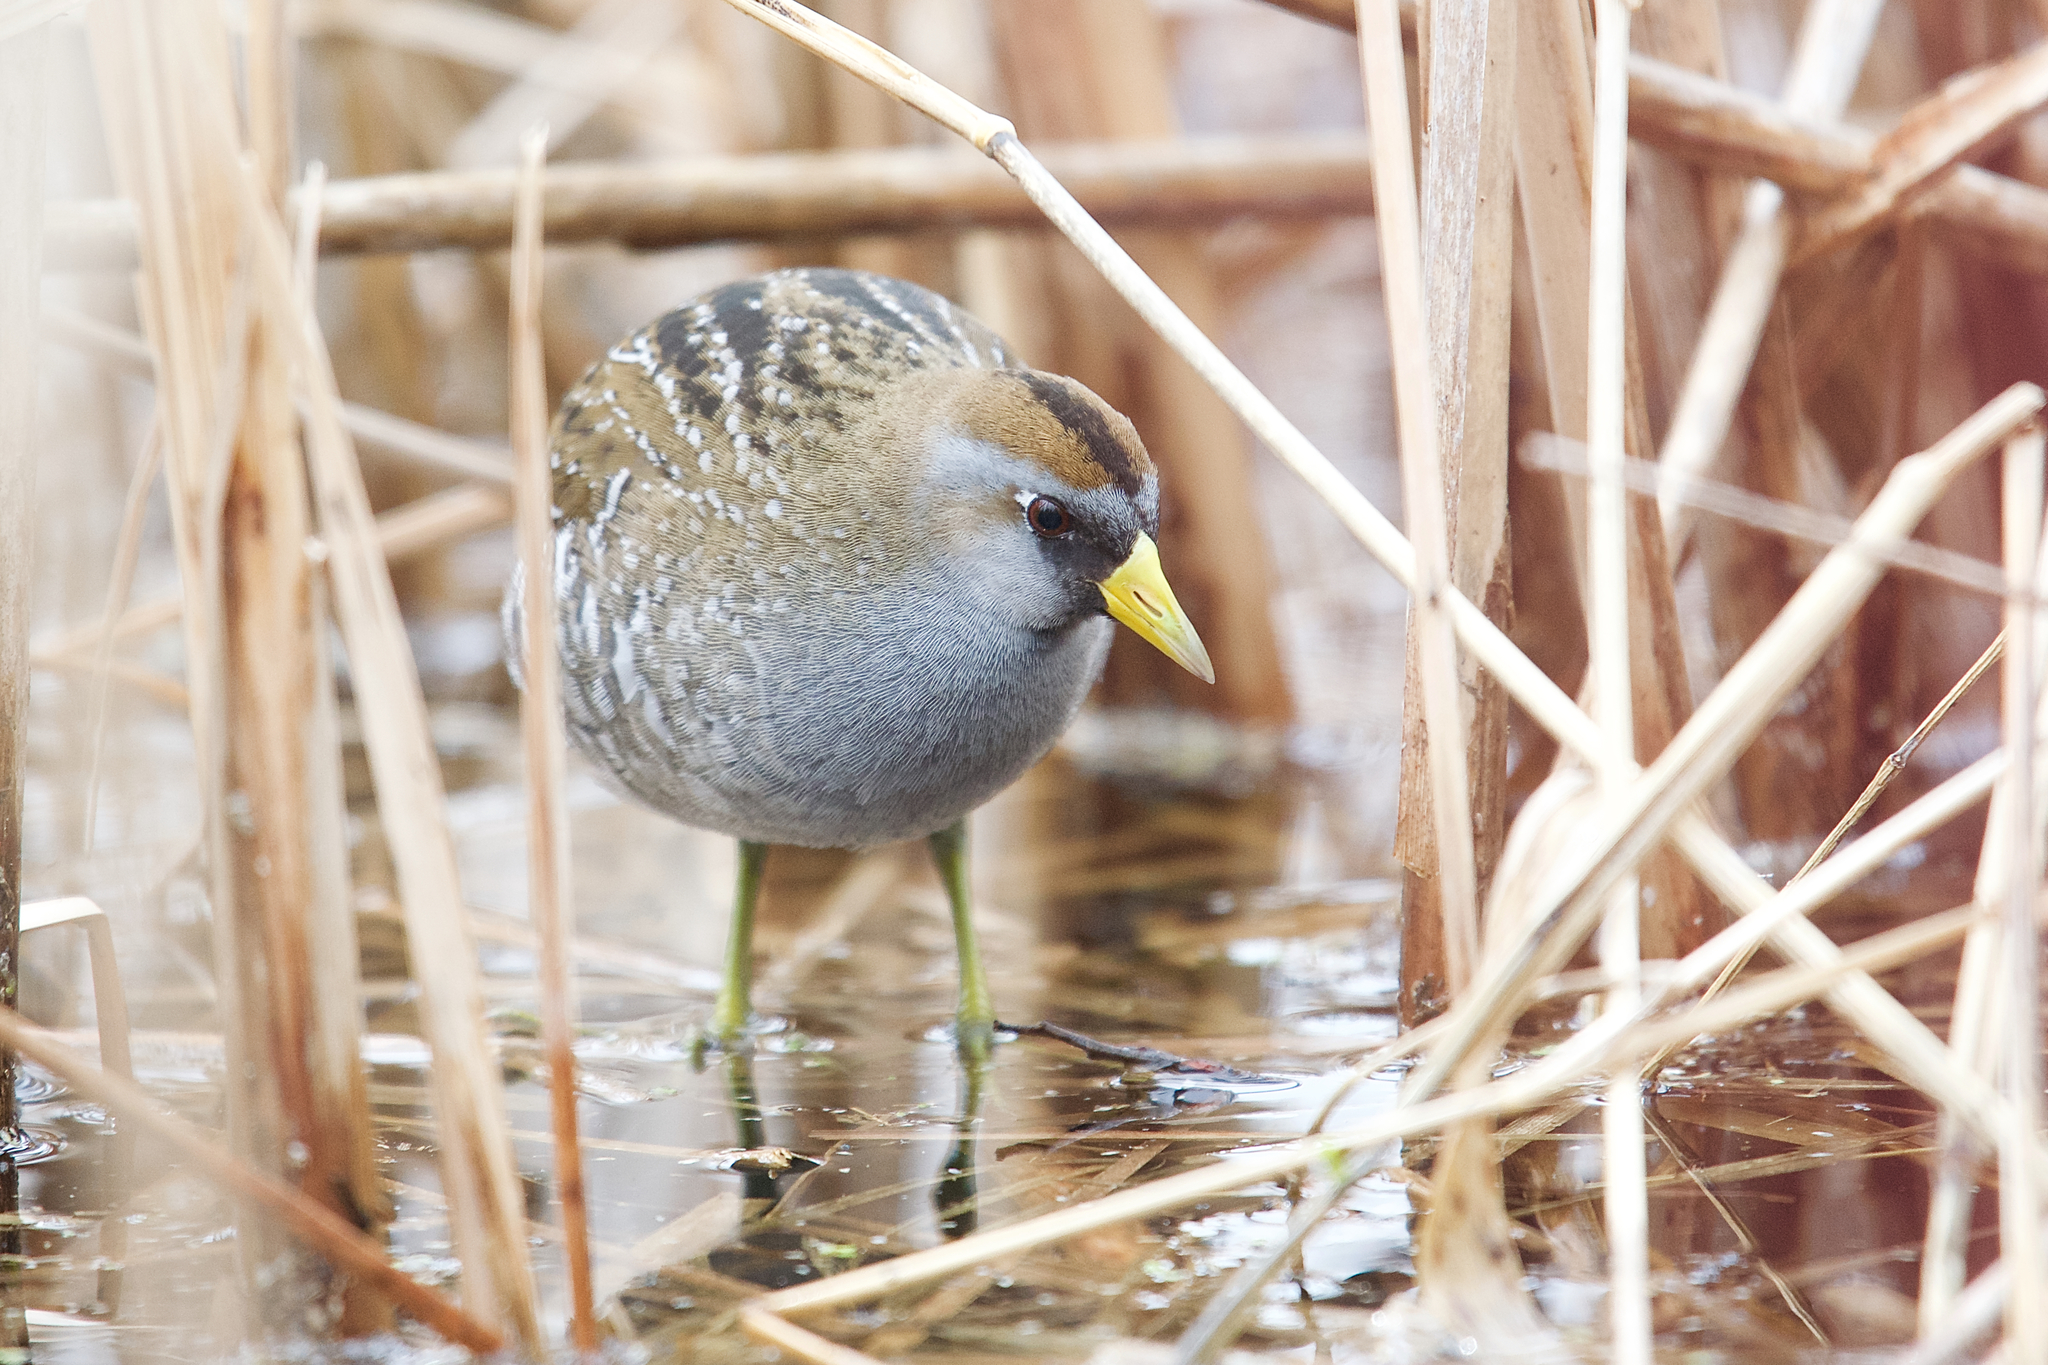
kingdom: Animalia
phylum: Chordata
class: Aves
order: Gruiformes
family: Rallidae
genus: Porzana
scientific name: Porzana carolina
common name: Sora
